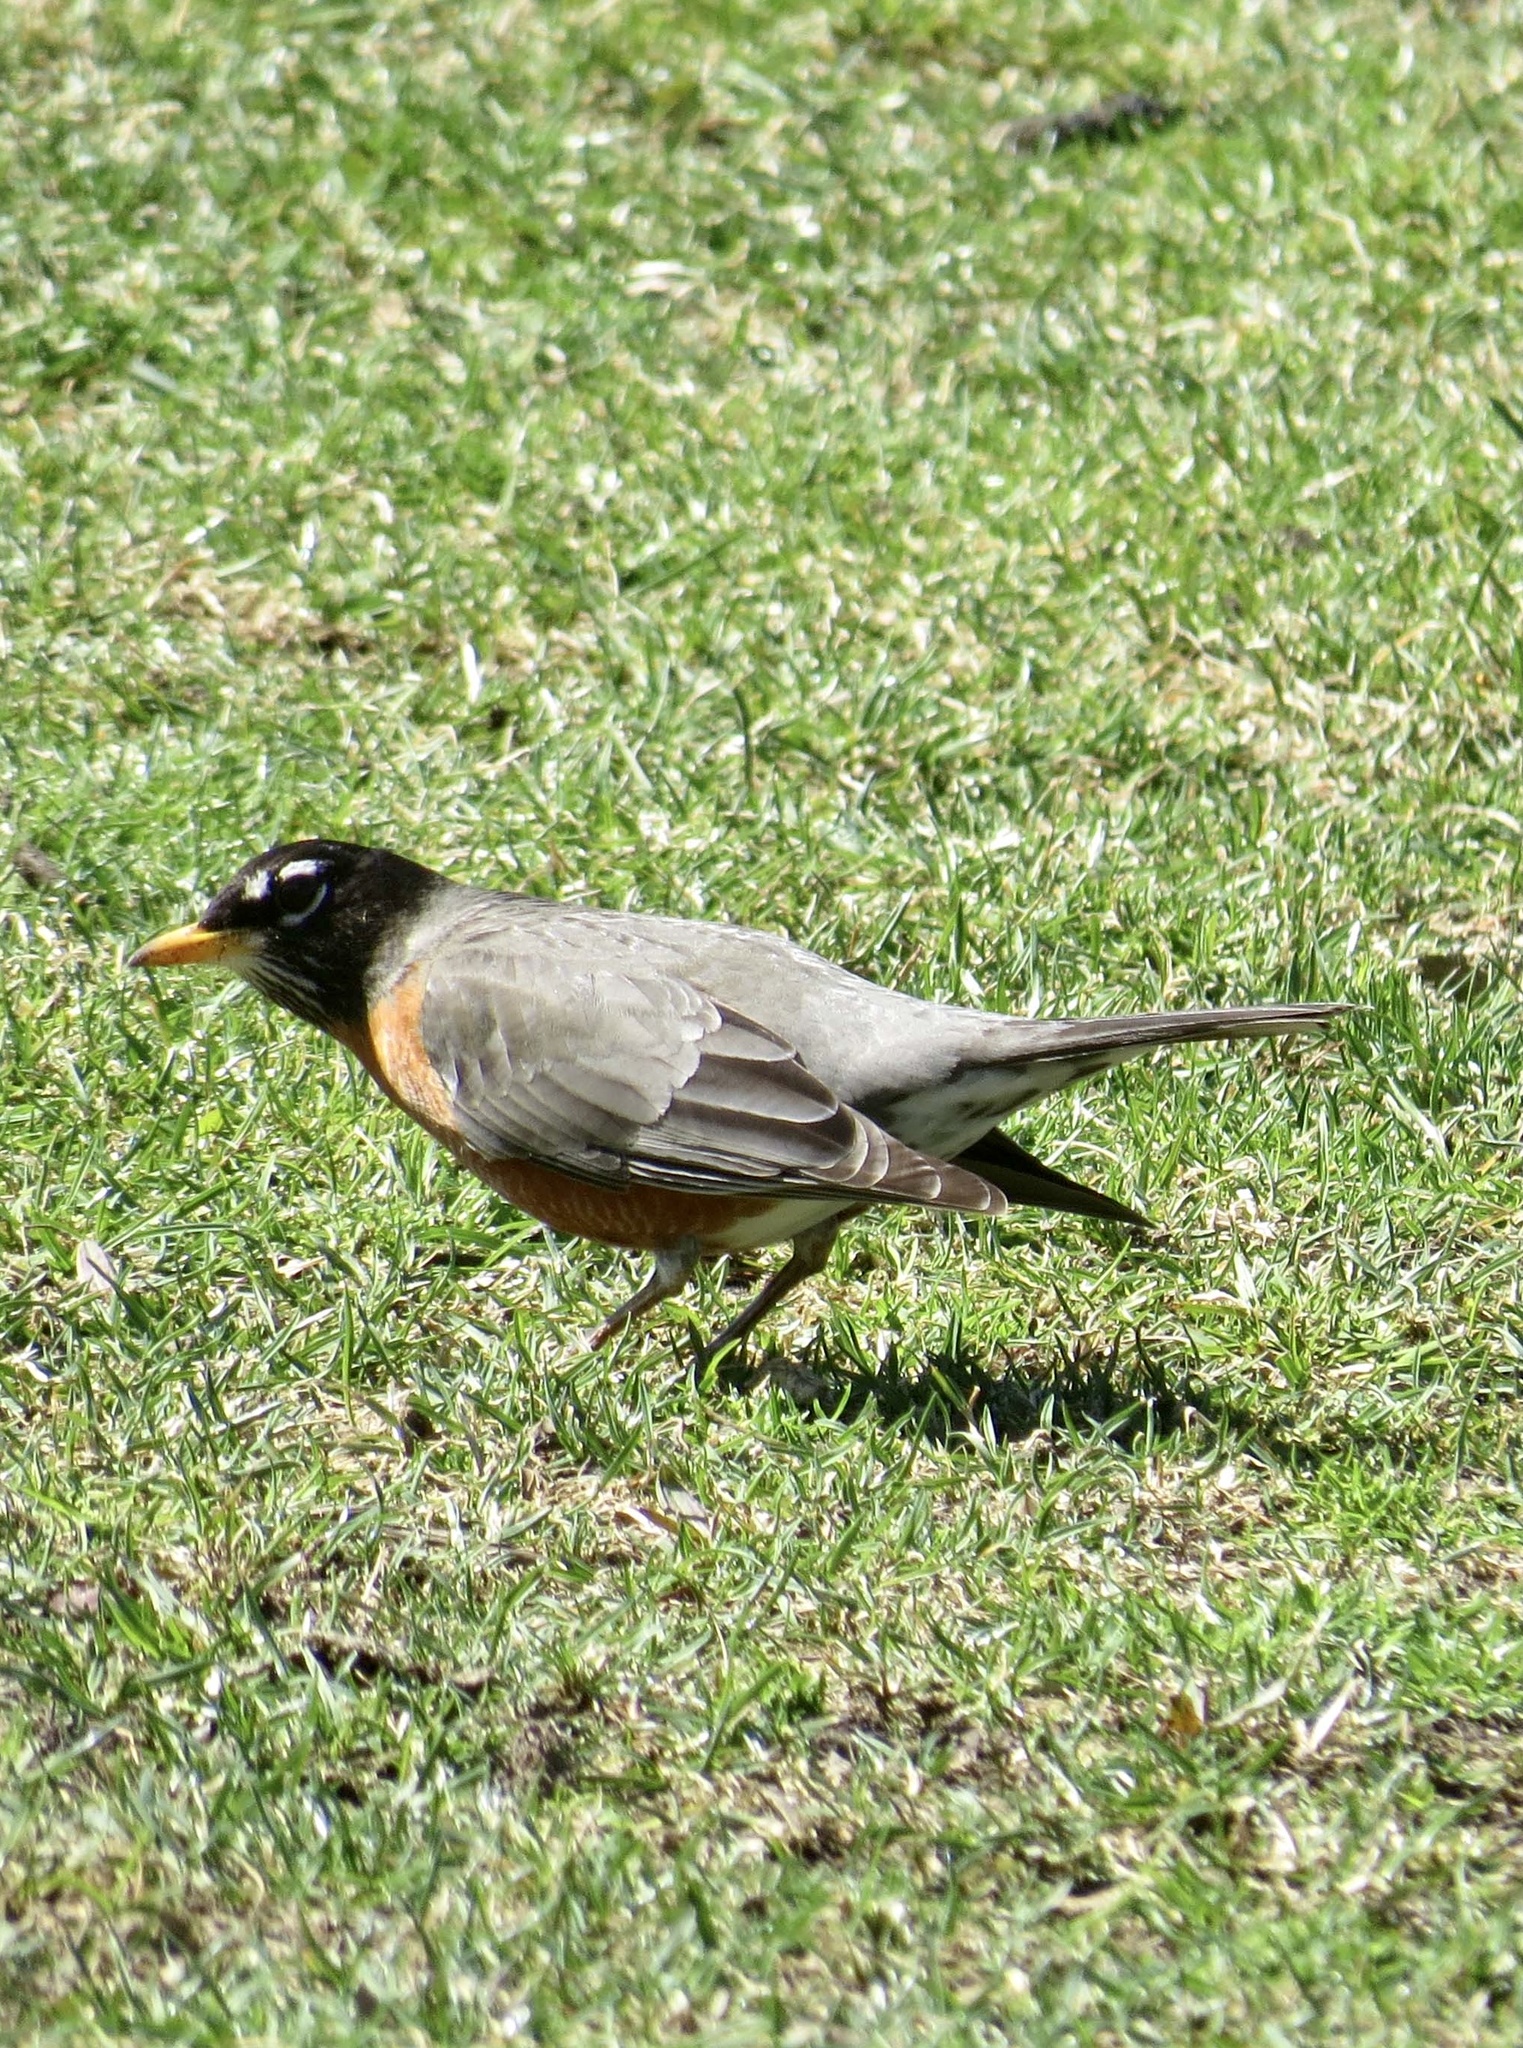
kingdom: Animalia
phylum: Chordata
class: Aves
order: Passeriformes
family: Turdidae
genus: Turdus
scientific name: Turdus migratorius
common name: American robin
